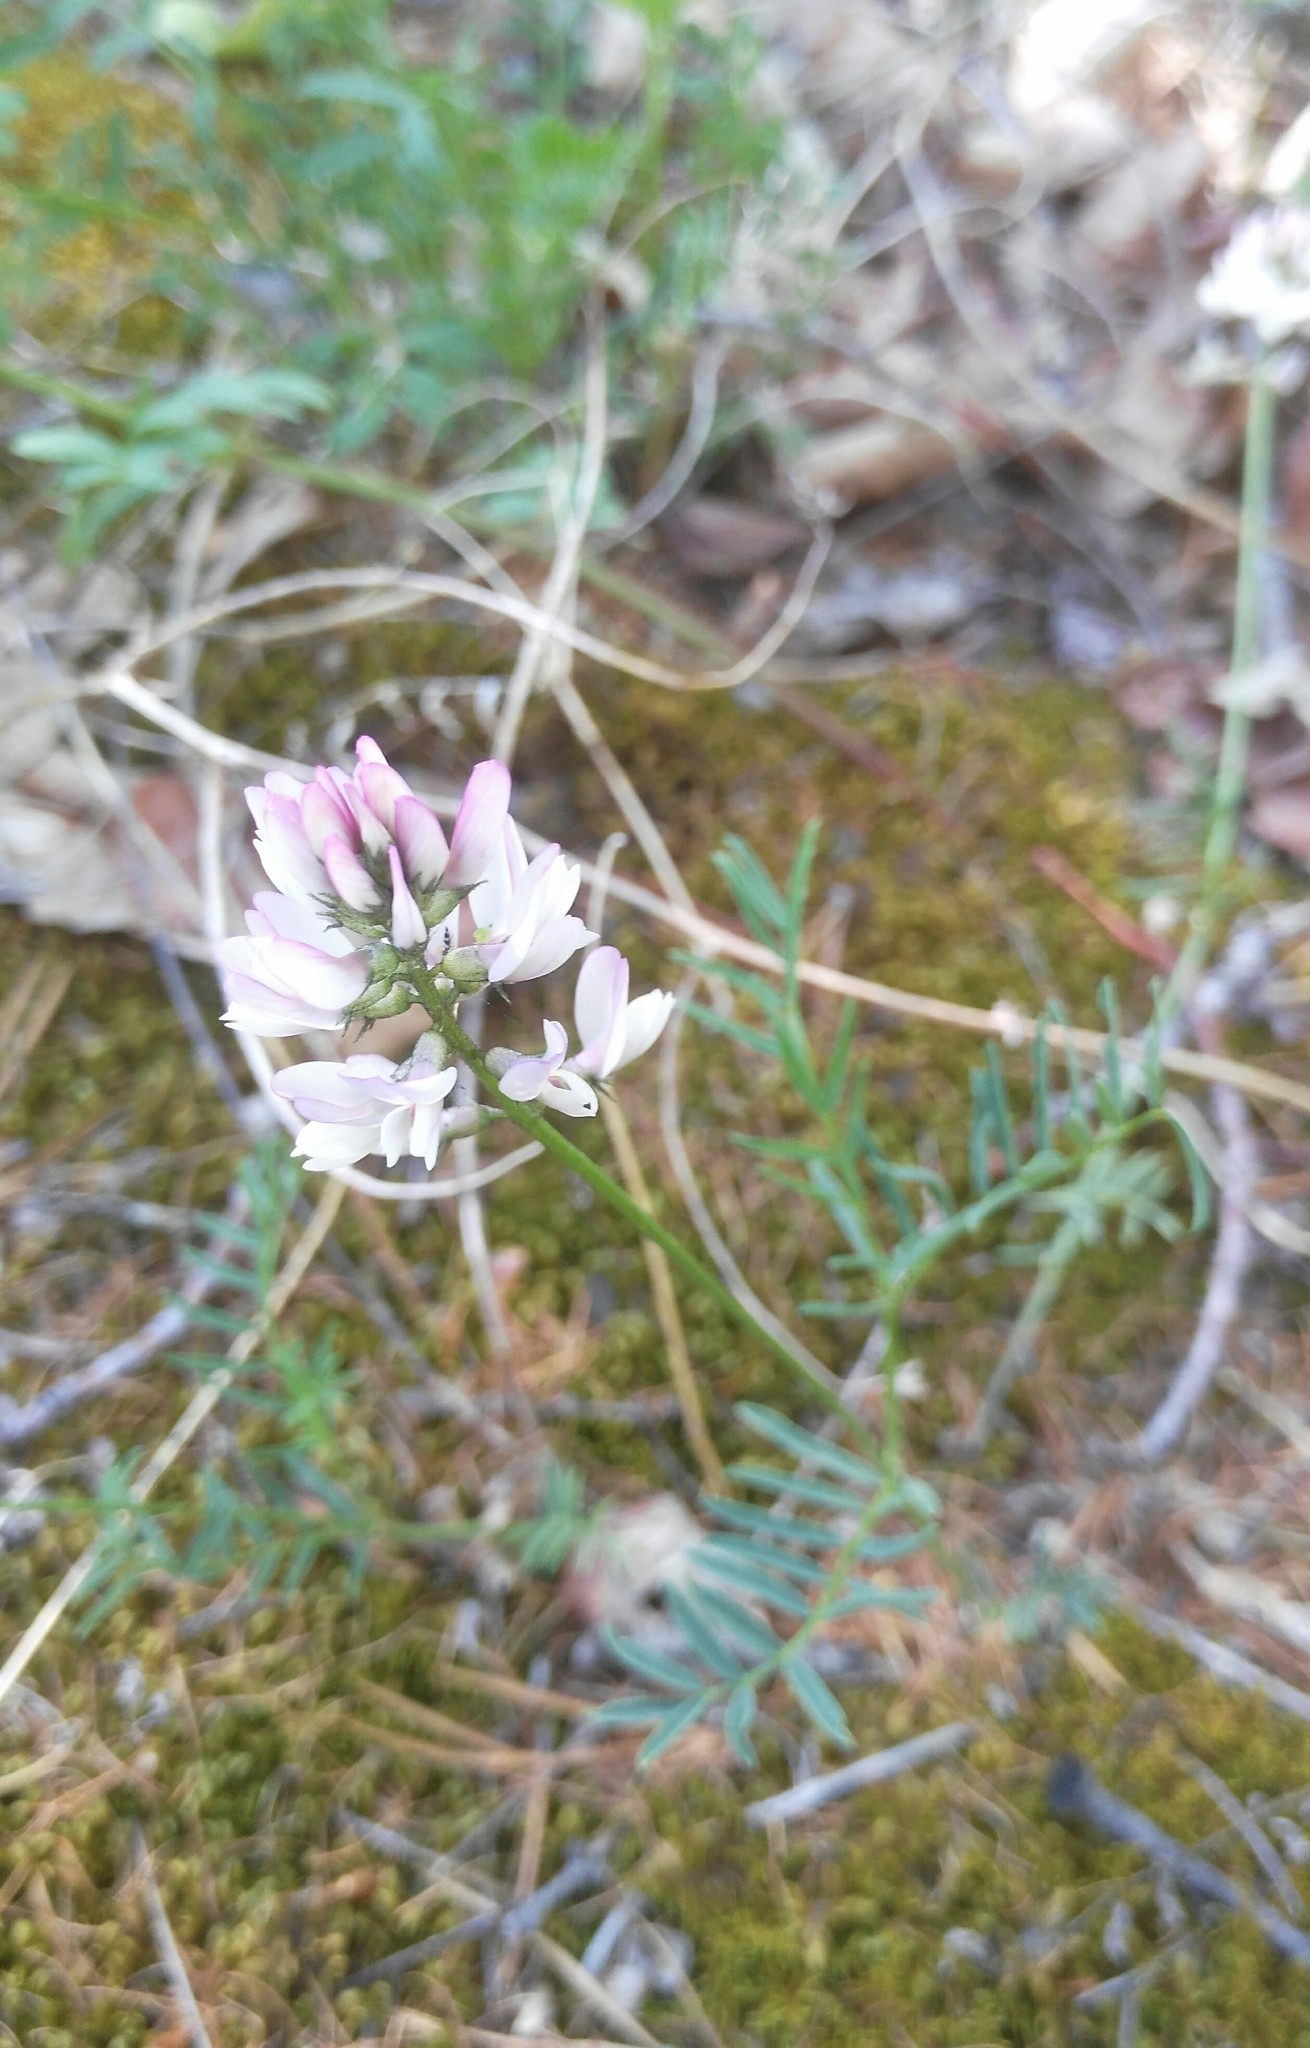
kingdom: Plantae
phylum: Tracheophyta
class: Magnoliopsida
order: Fabales
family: Fabaceae
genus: Astragalus
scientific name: Astragalus versicolor
